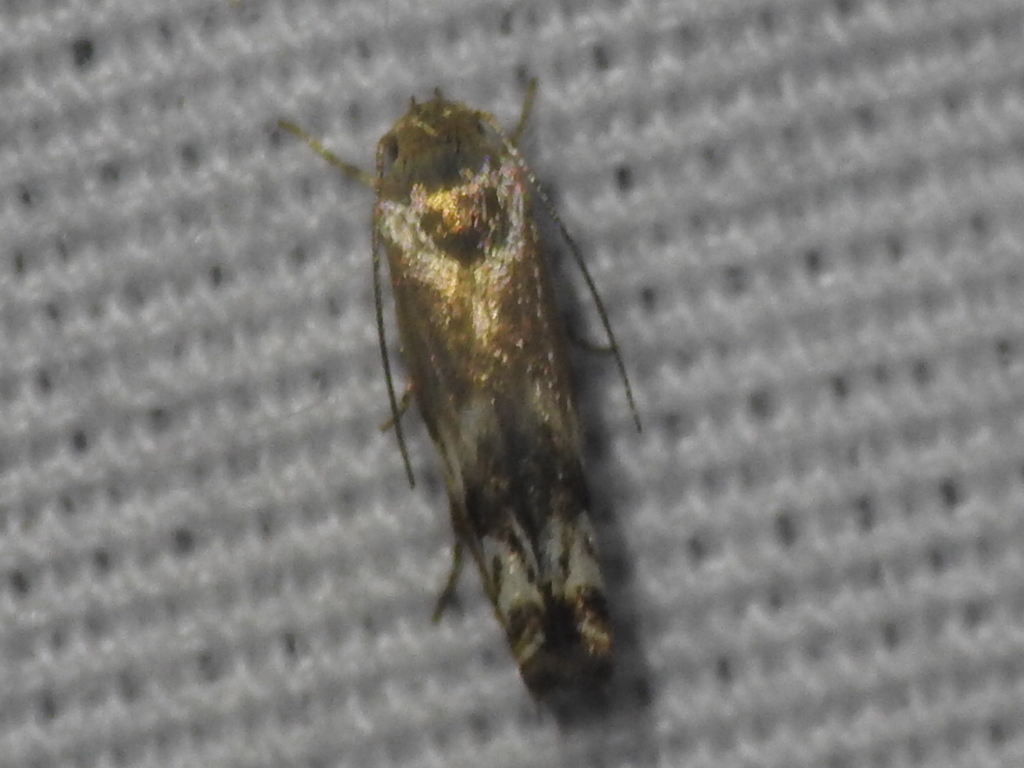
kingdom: Animalia
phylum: Arthropoda
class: Insecta
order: Lepidoptera
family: Gelechiidae
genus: Calliprora
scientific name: Calliprora sexstrigella
